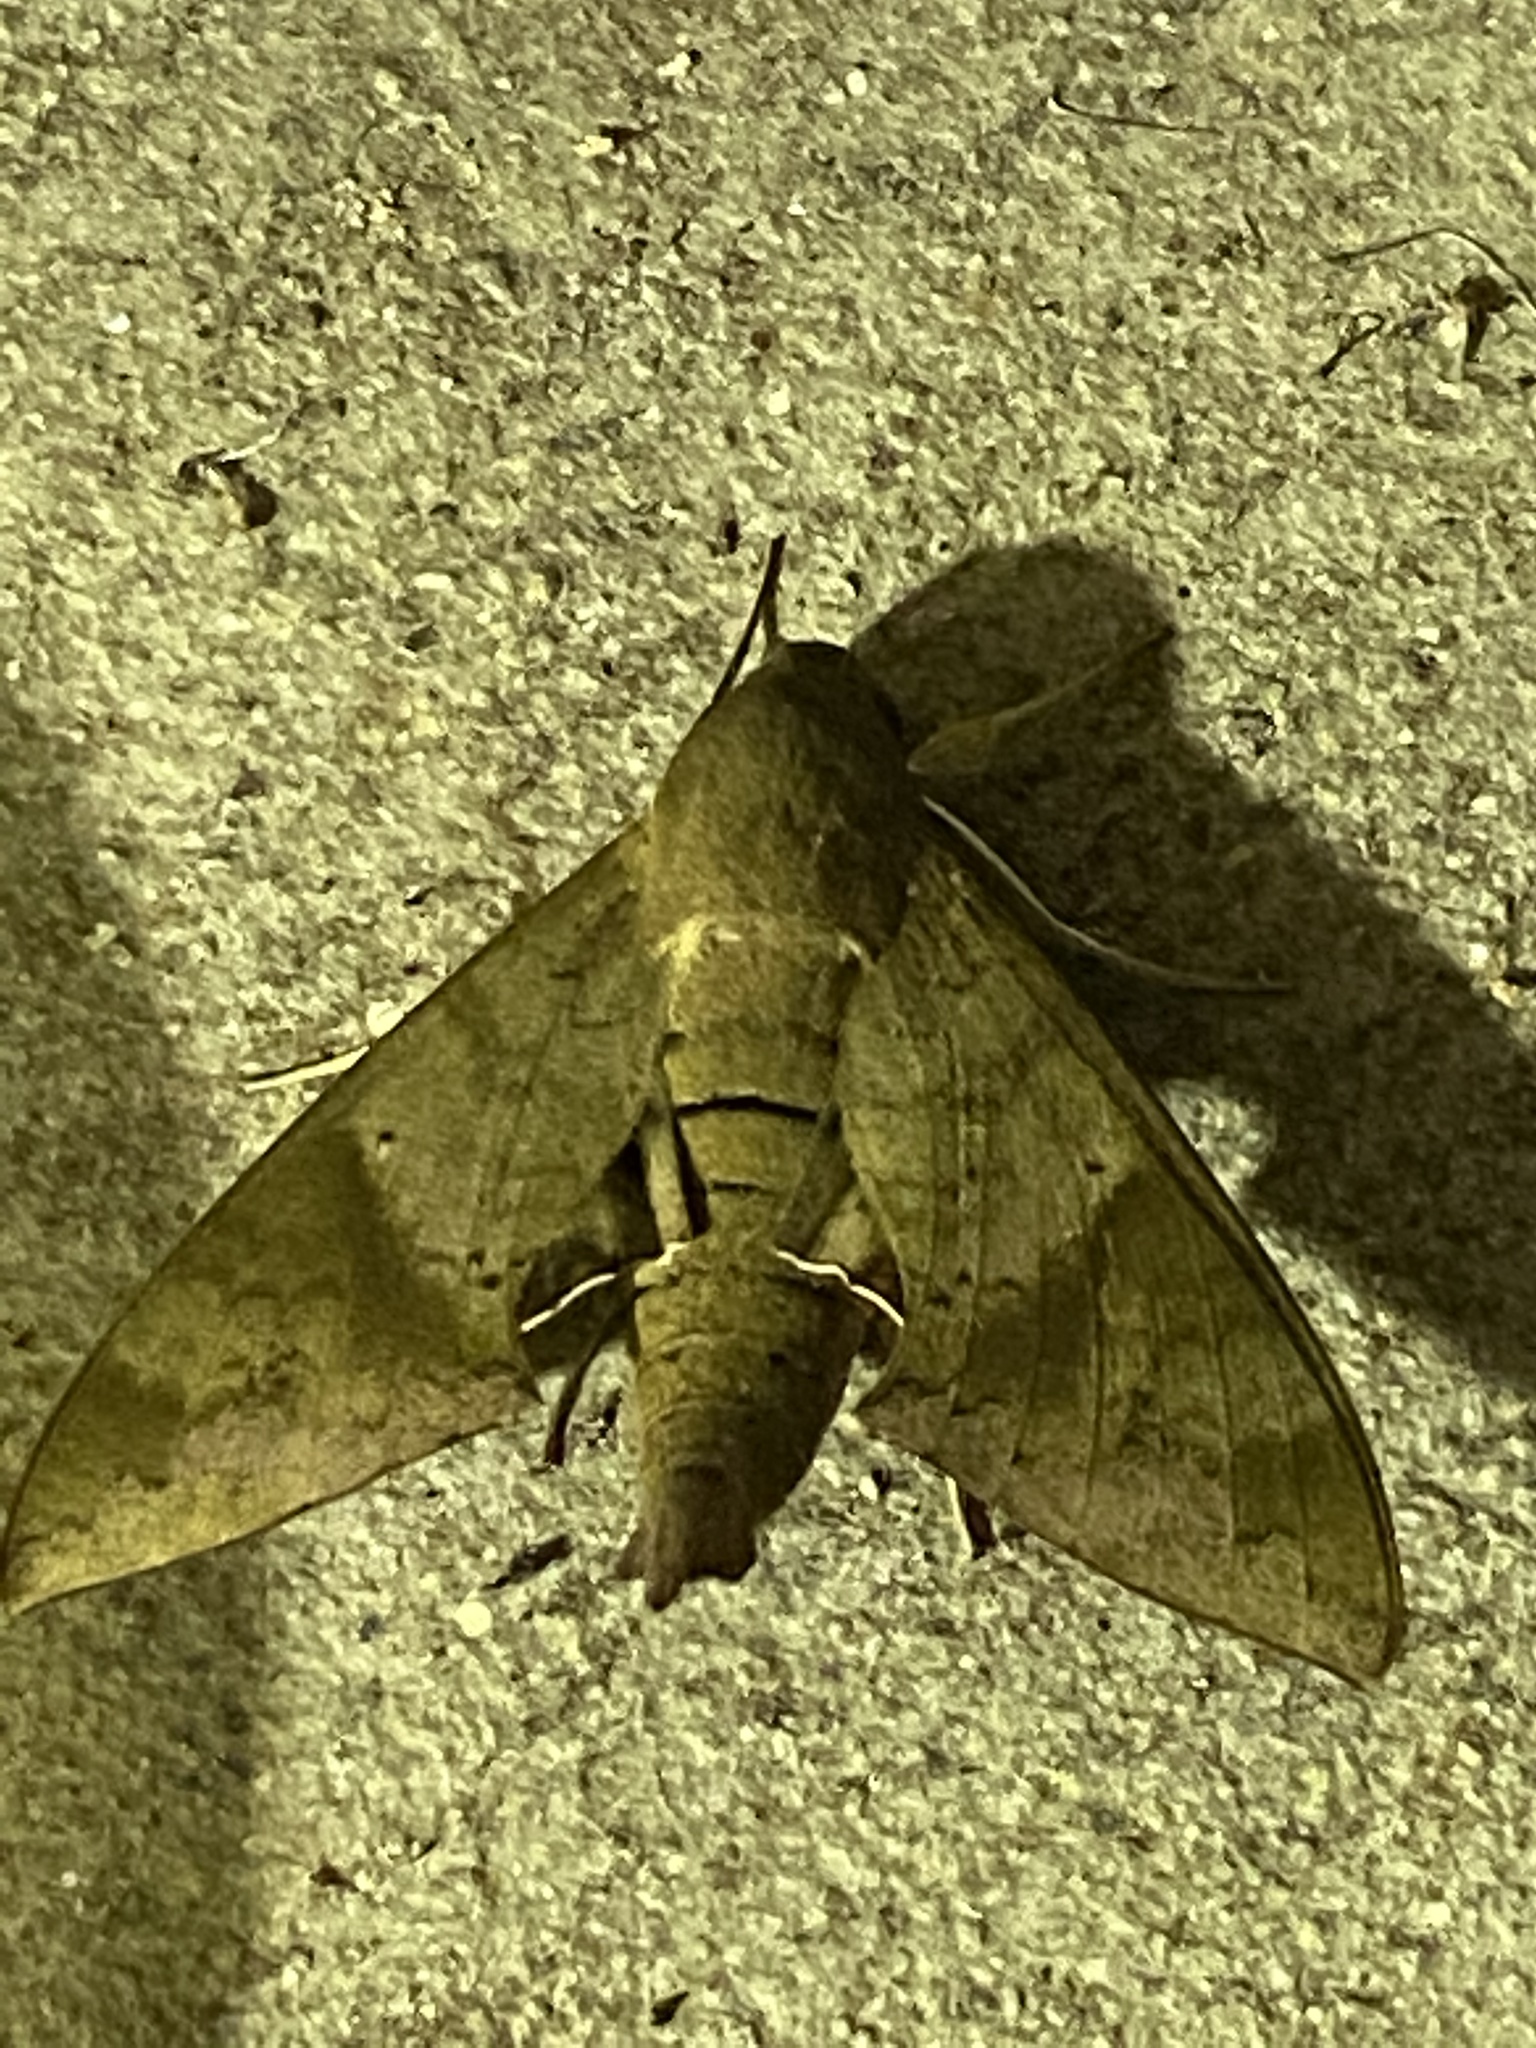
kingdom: Animalia
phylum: Arthropoda
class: Insecta
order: Lepidoptera
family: Sphingidae
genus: Pachylioides
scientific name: Pachylioides resumens
